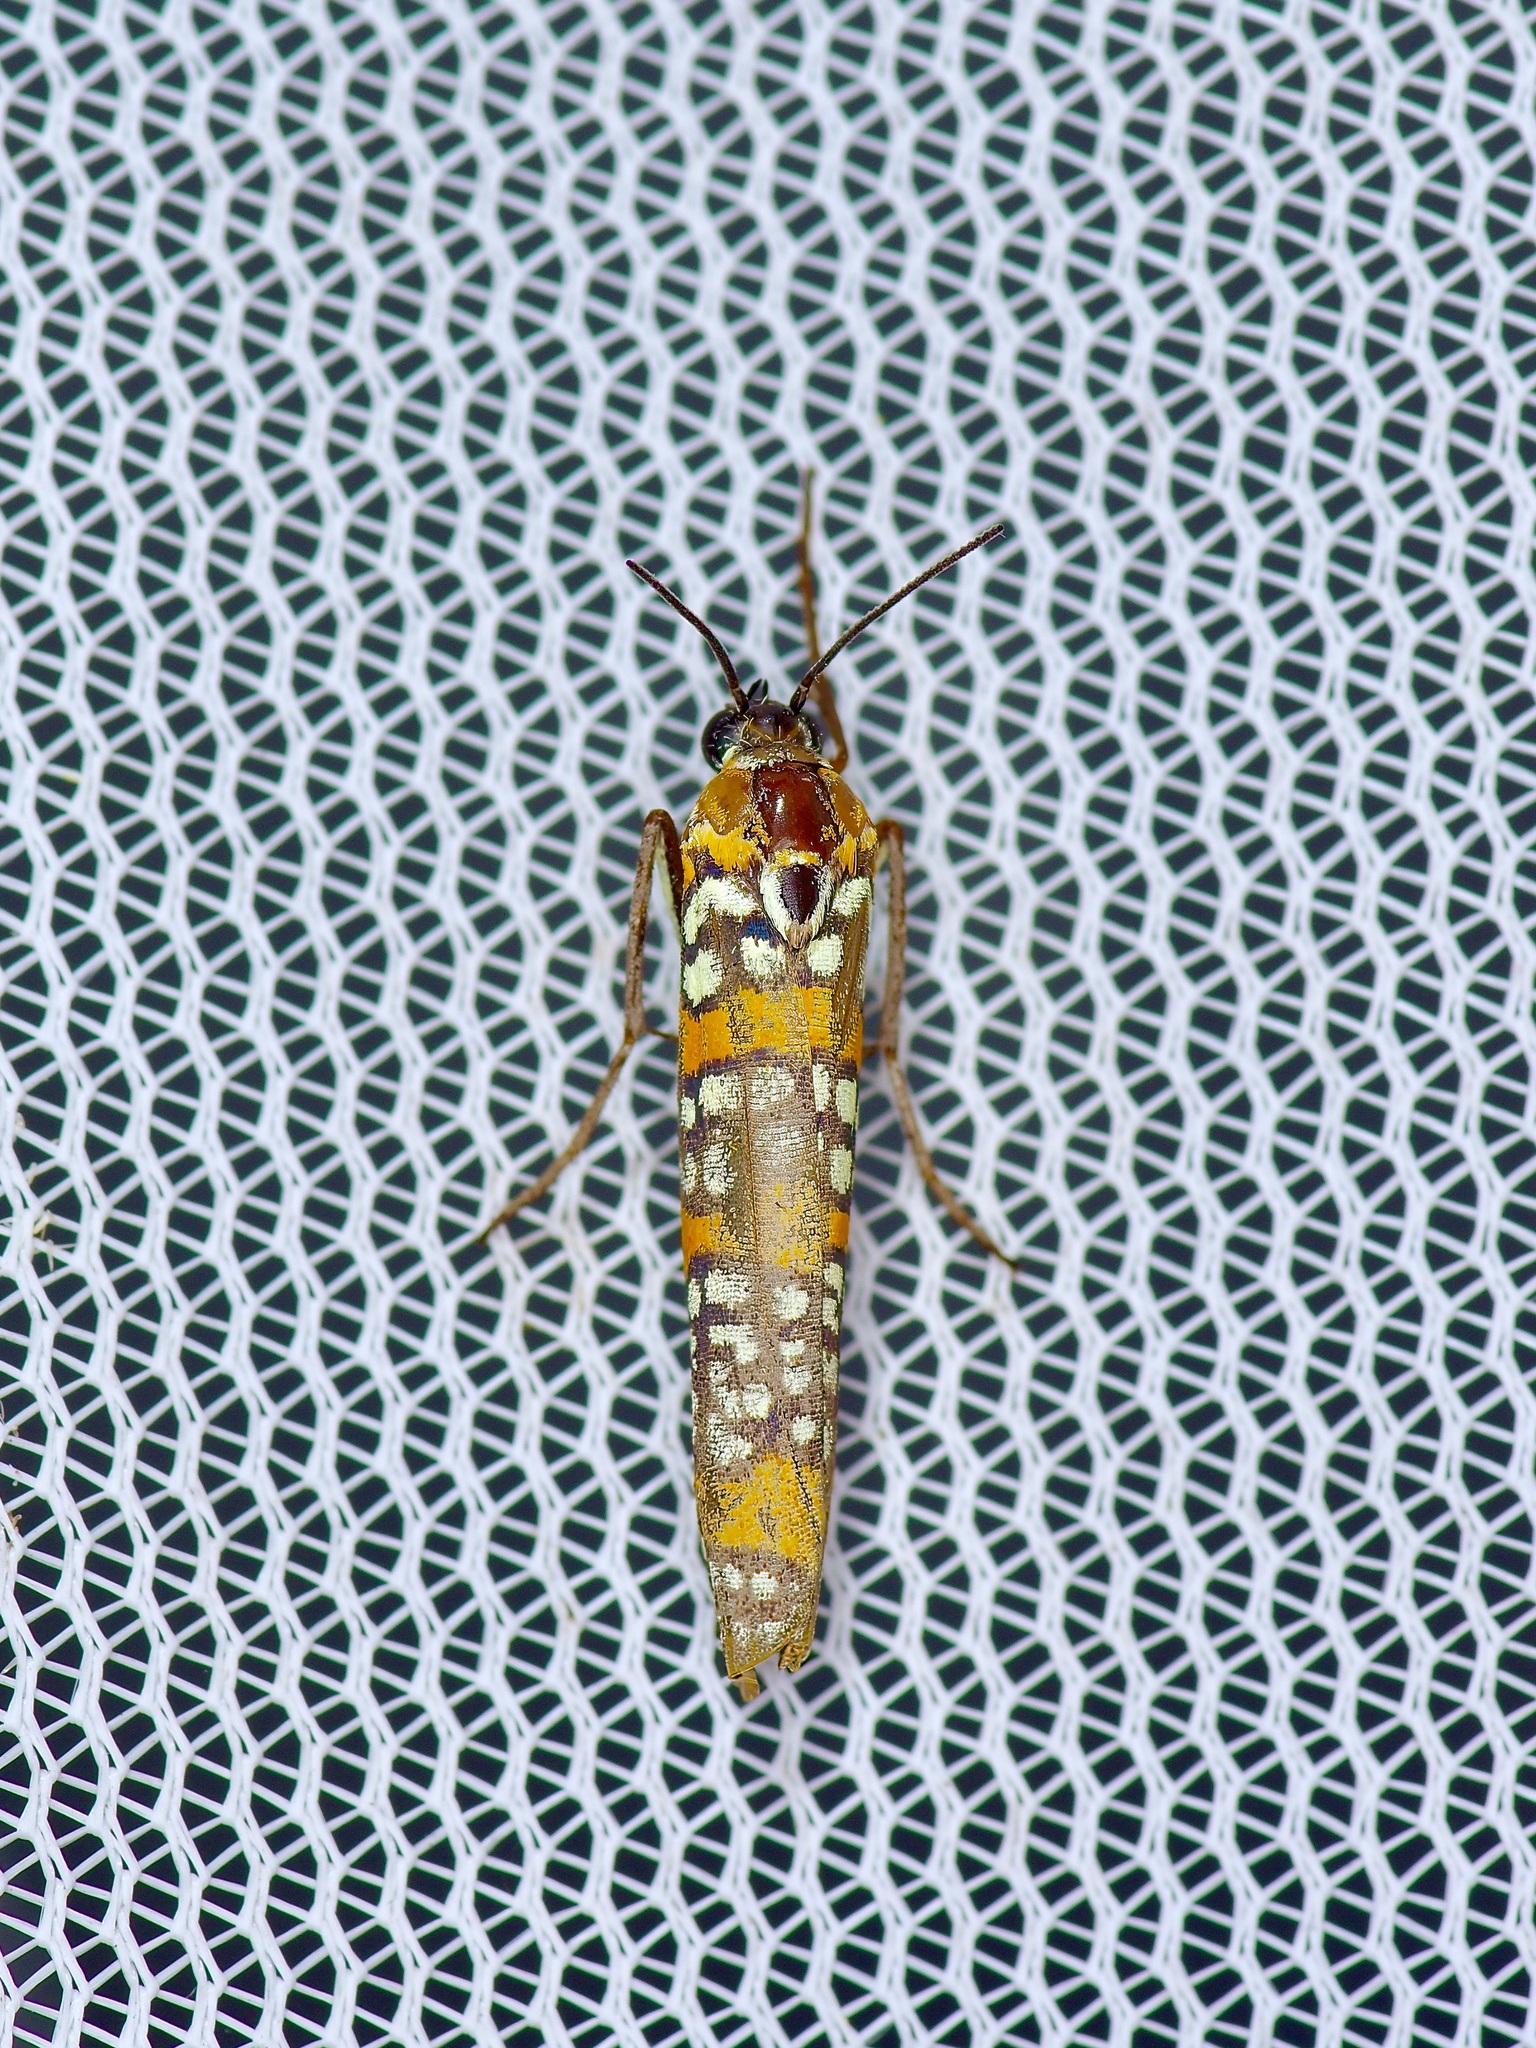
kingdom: Animalia
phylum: Arthropoda
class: Insecta
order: Lepidoptera
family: Attevidae
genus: Atteva
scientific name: Atteva punctella
